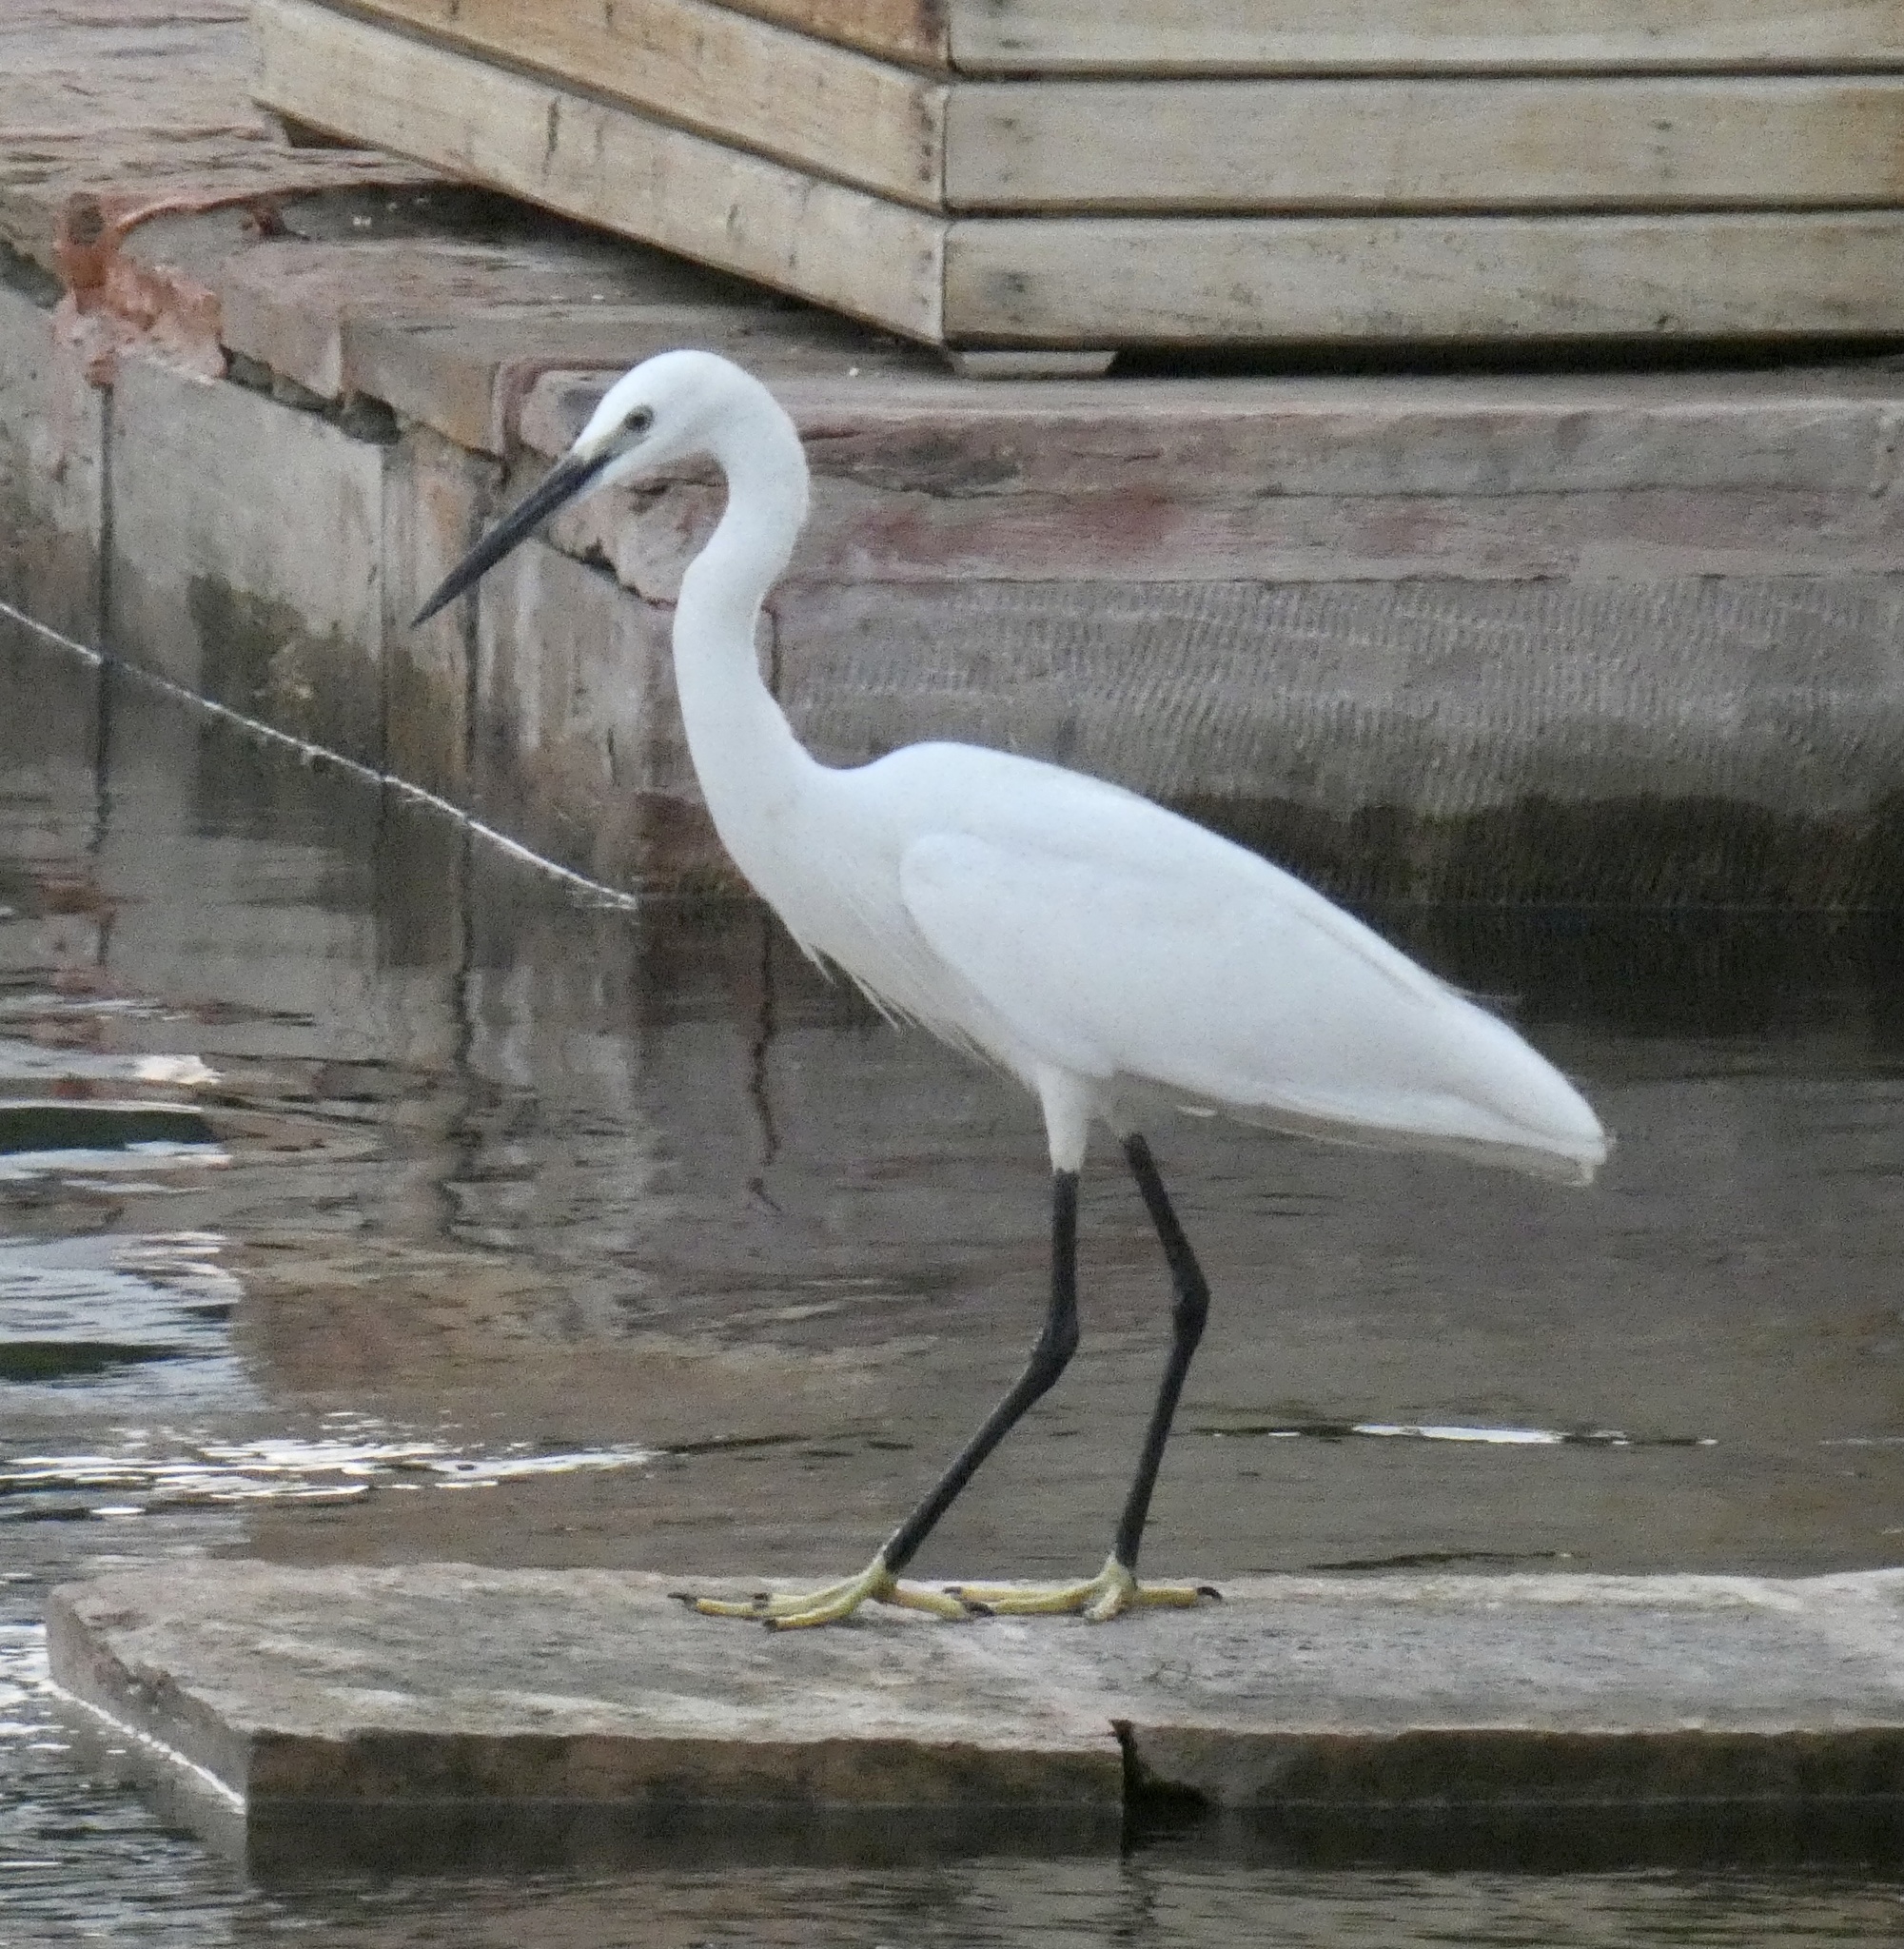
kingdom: Animalia
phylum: Chordata
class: Aves
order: Pelecaniformes
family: Ardeidae
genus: Egretta
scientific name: Egretta garzetta
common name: Little egret
